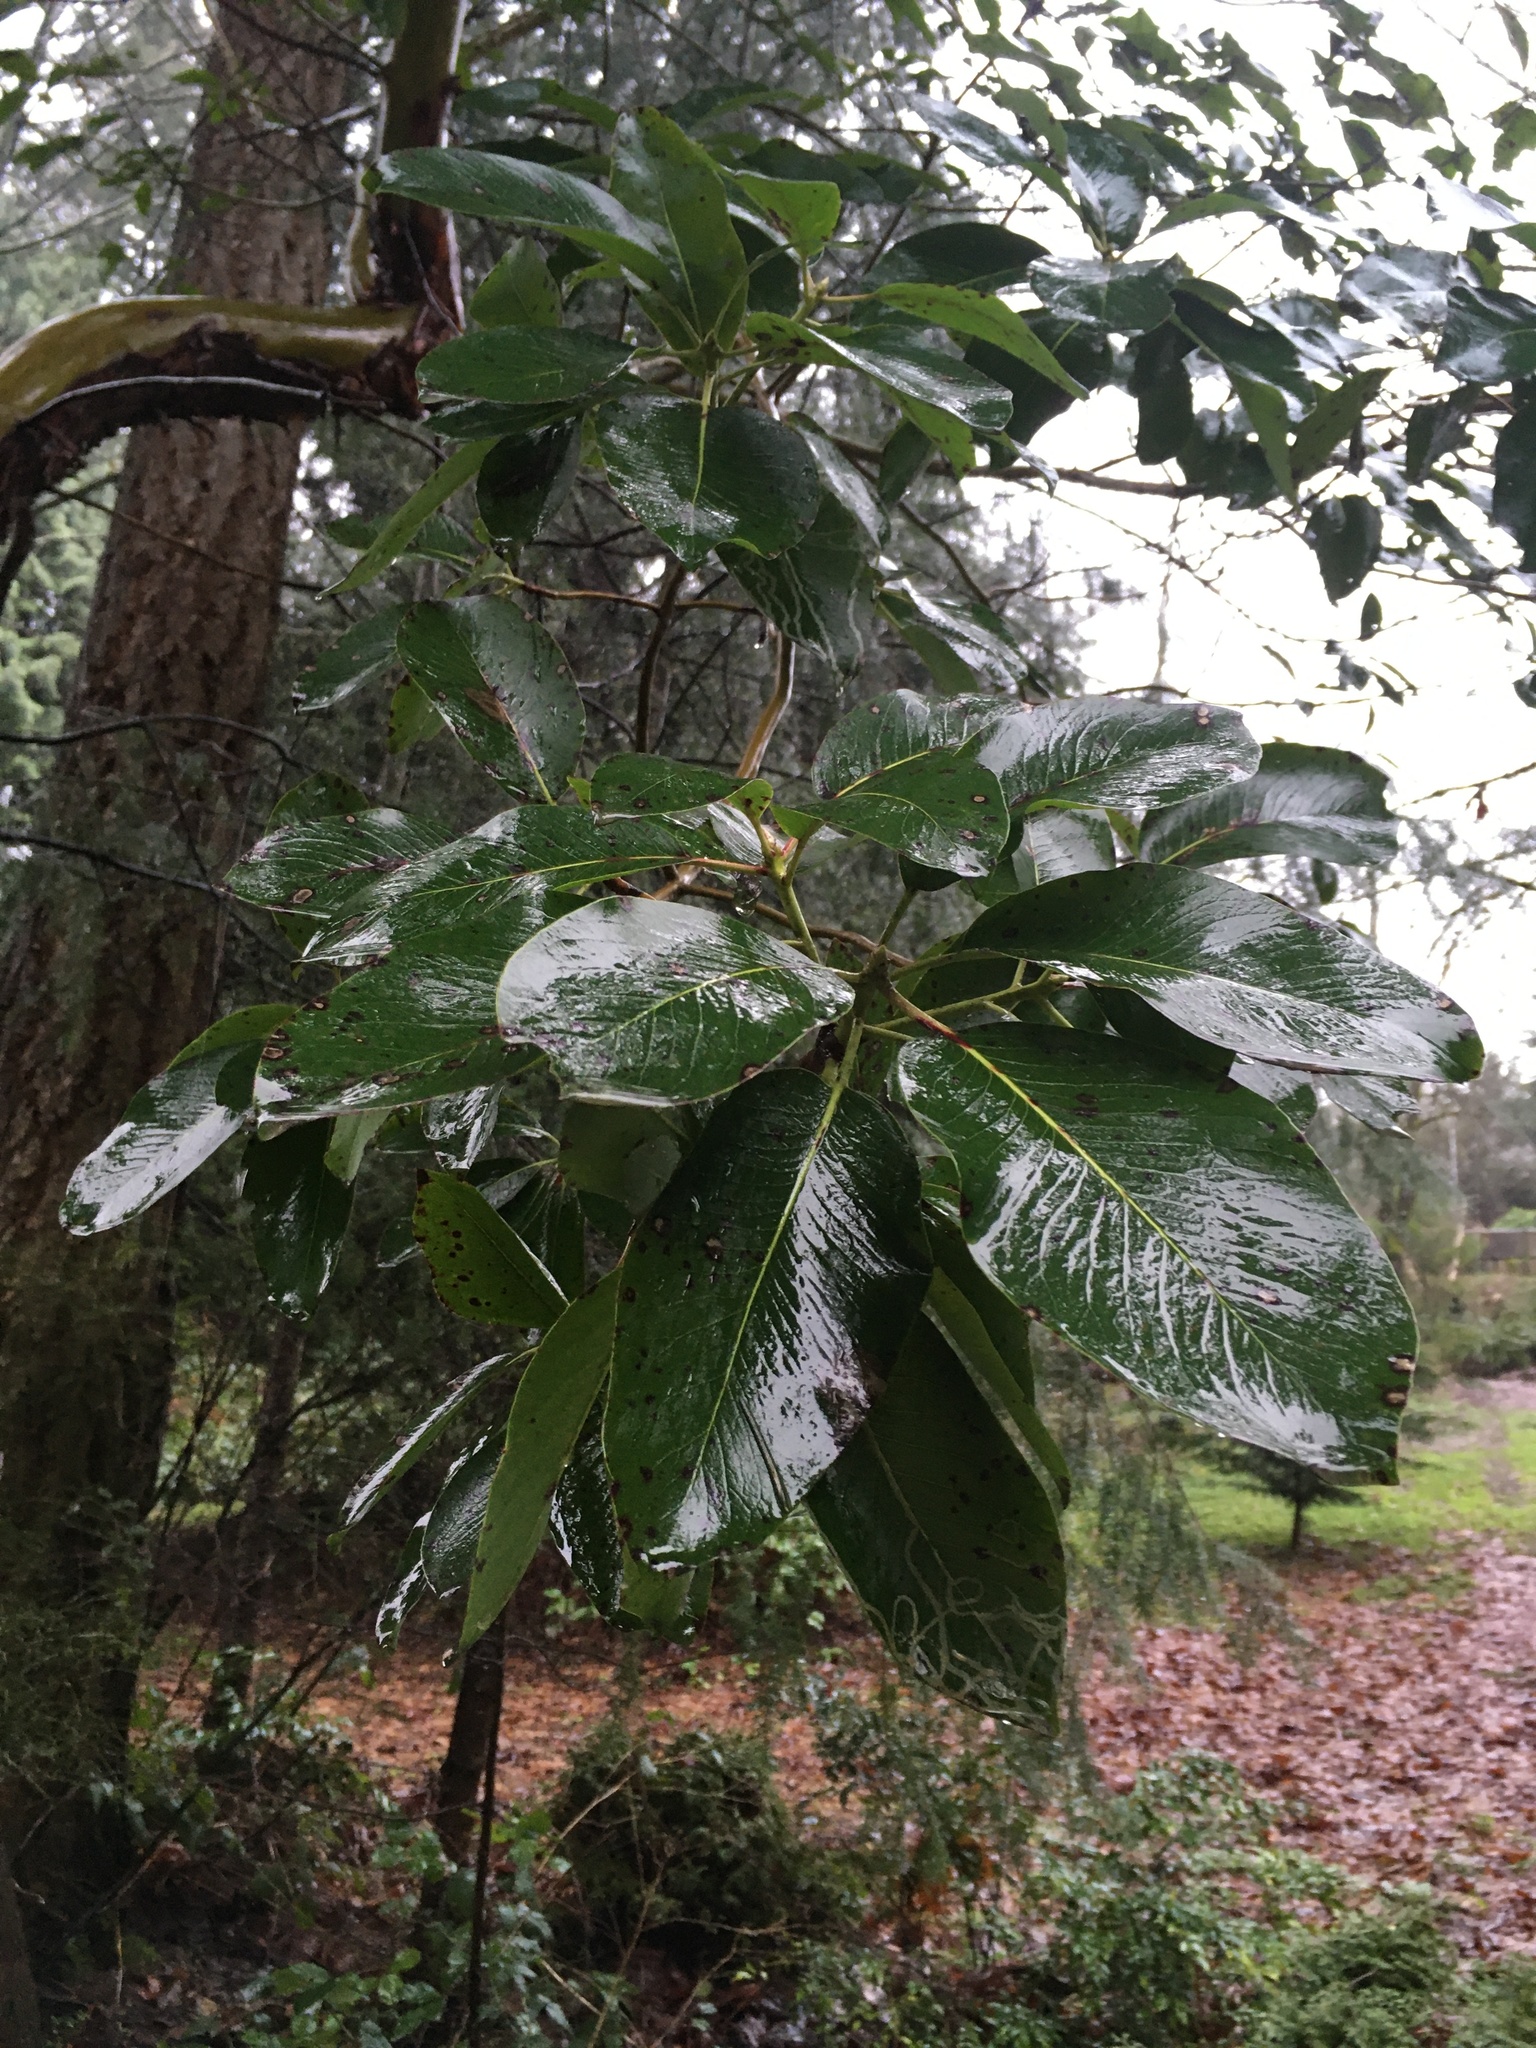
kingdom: Plantae
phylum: Tracheophyta
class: Magnoliopsida
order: Ericales
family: Ericaceae
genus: Arbutus
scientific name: Arbutus menziesii
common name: Pacific madrone
